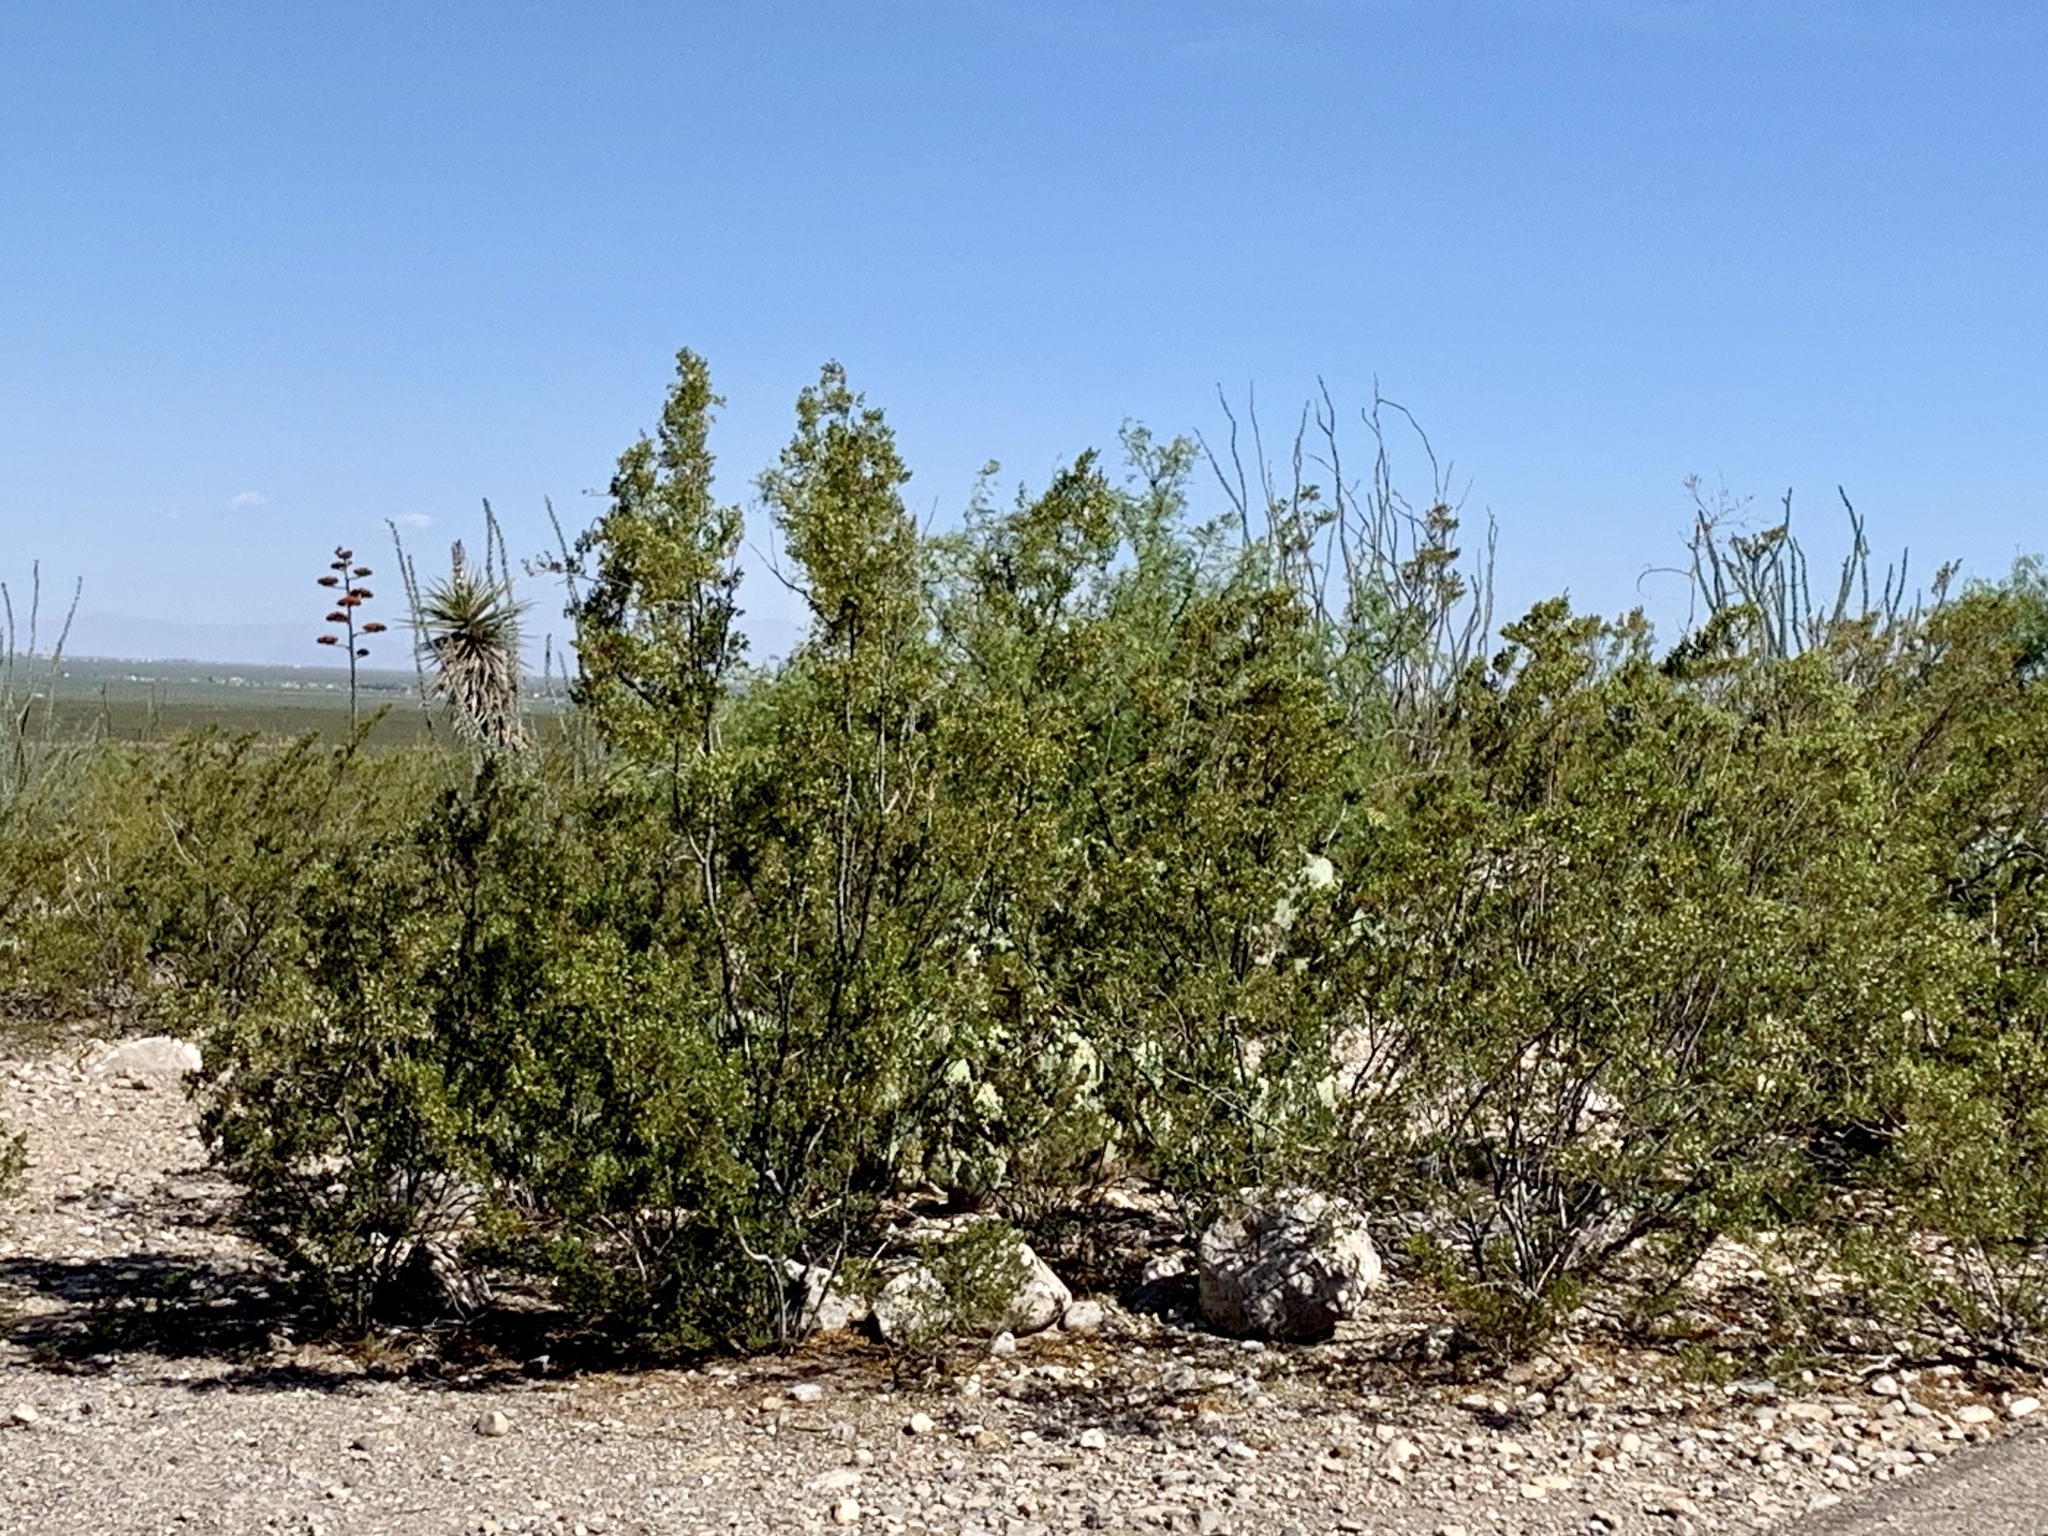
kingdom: Plantae
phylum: Tracheophyta
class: Magnoliopsida
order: Zygophyllales
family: Zygophyllaceae
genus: Larrea
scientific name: Larrea tridentata
